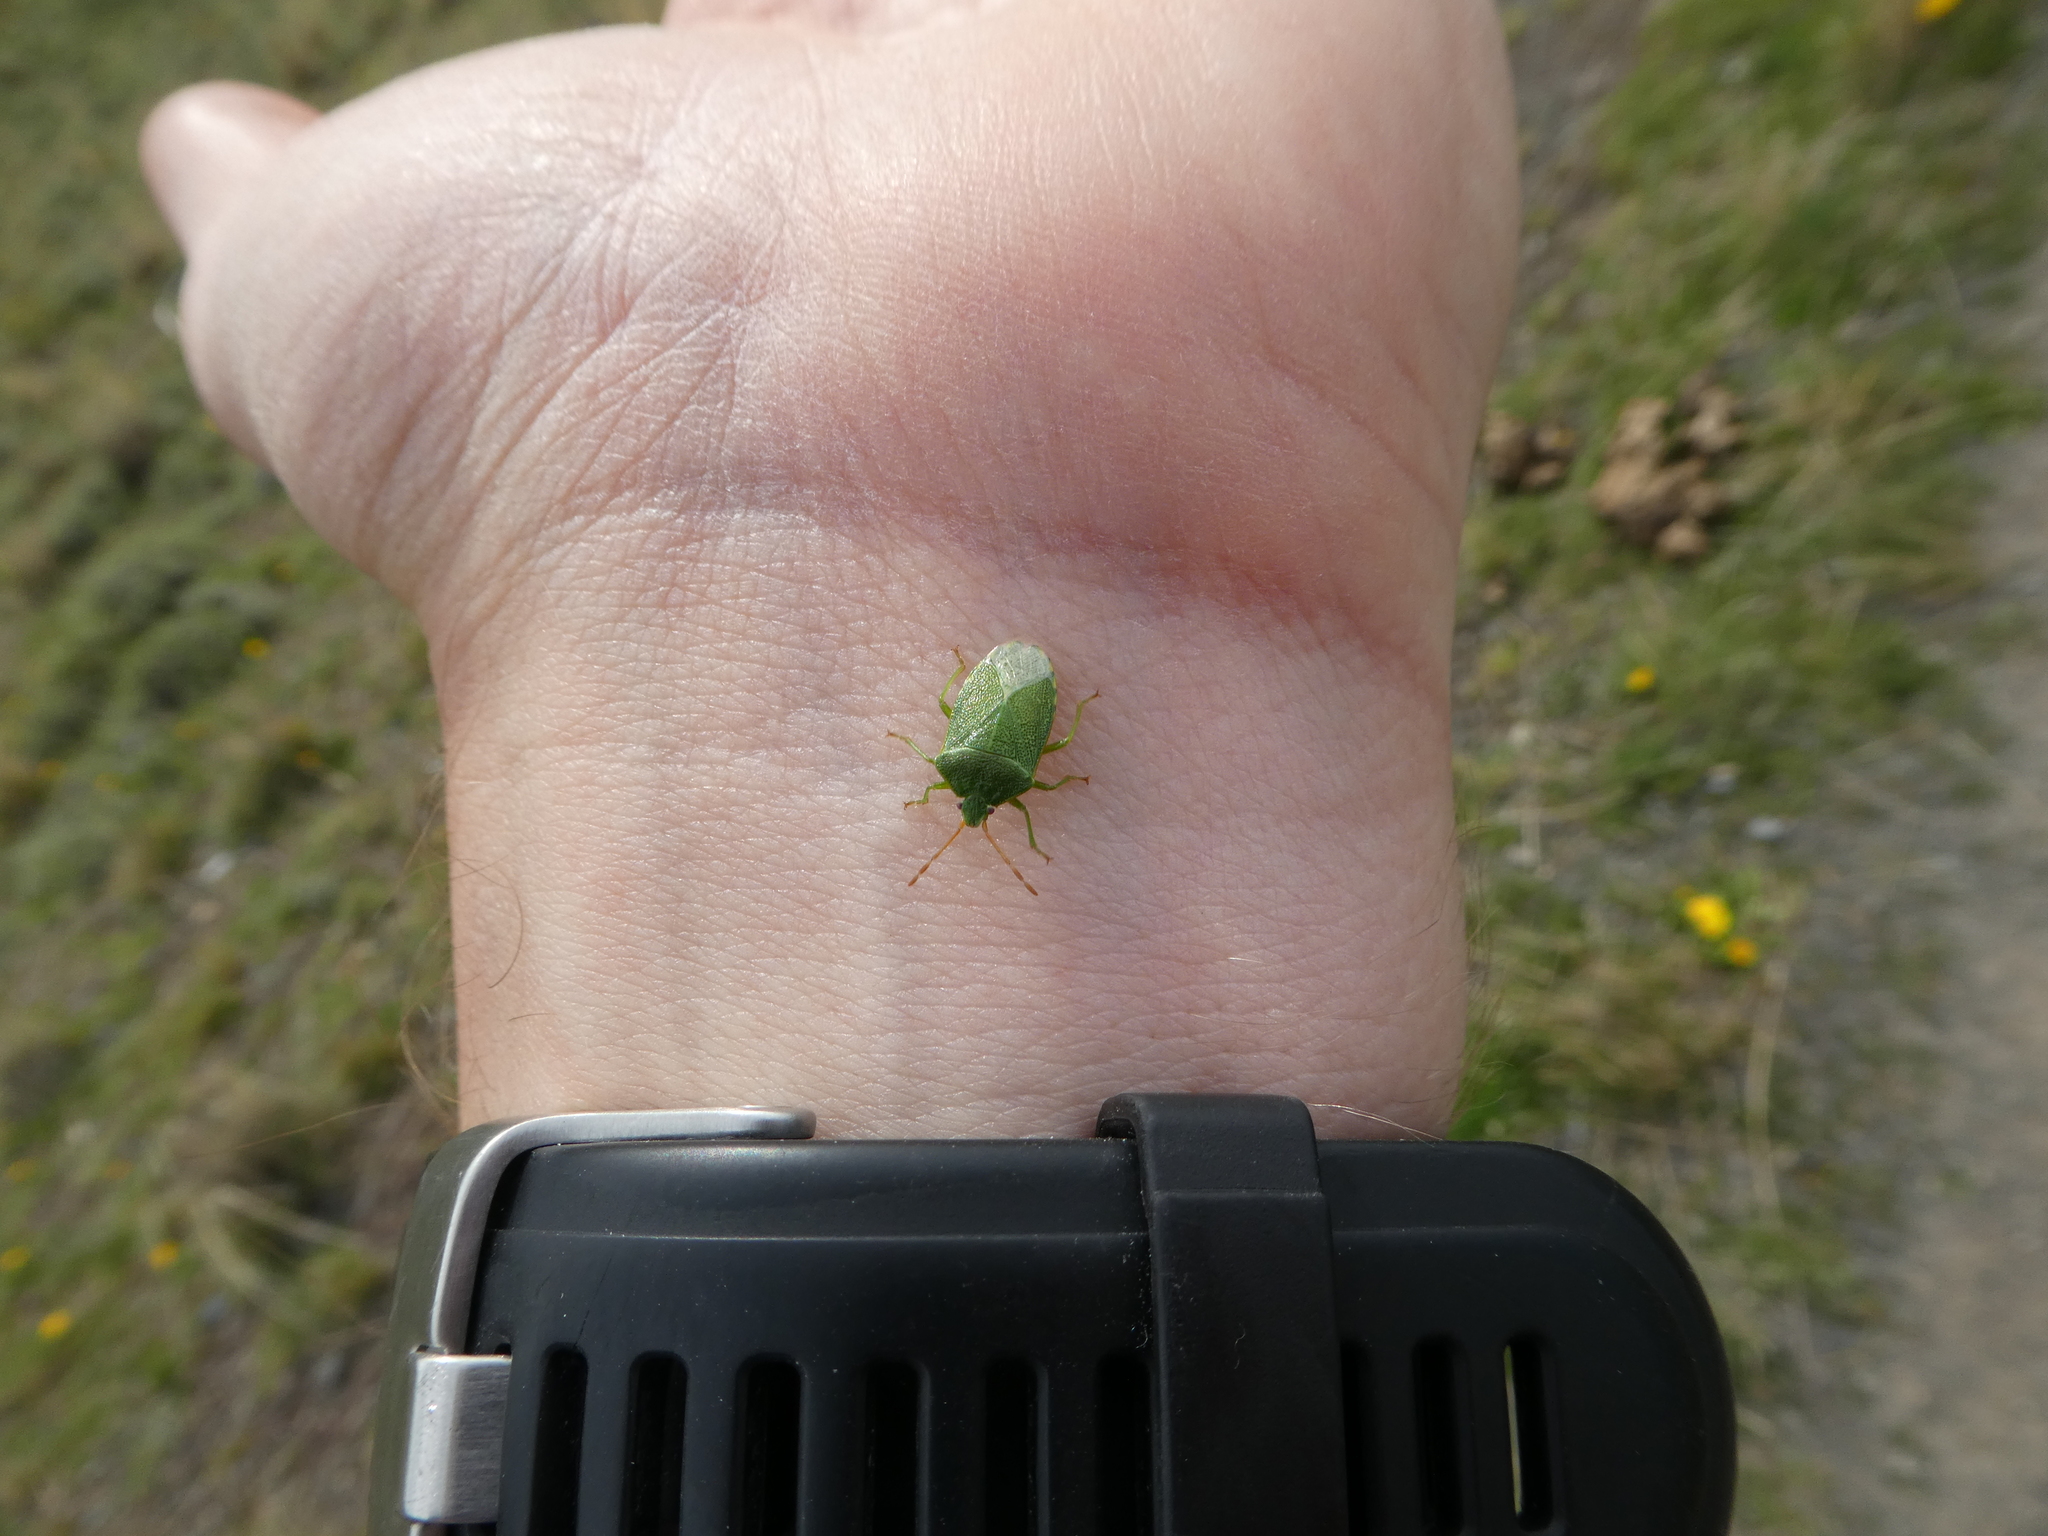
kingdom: Animalia
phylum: Arthropoda
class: Insecta
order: Hemiptera
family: Acanthosomatidae
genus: Sinopla
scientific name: Sinopla perpunctatus
